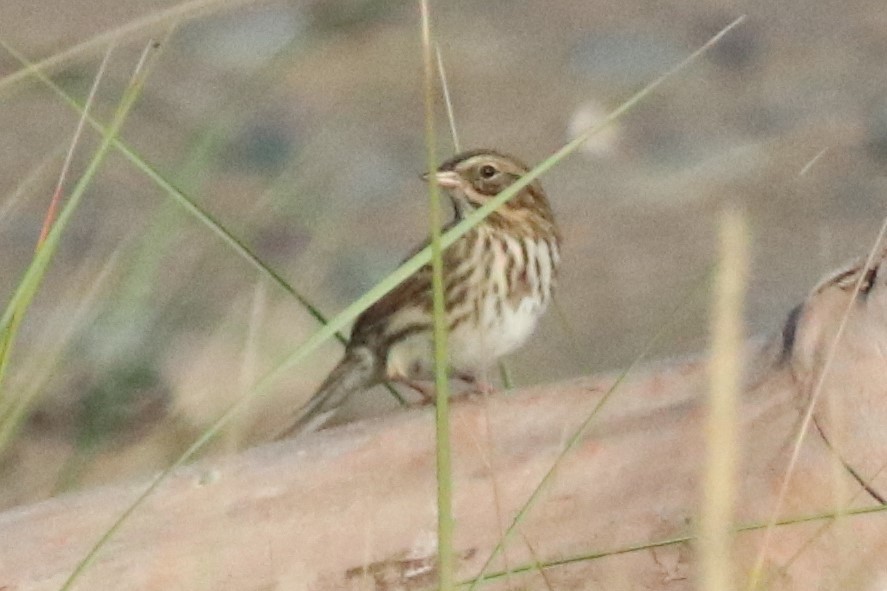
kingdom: Animalia
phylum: Chordata
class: Aves
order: Passeriformes
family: Passerellidae
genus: Passerculus
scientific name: Passerculus sandwichensis
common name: Savannah sparrow
